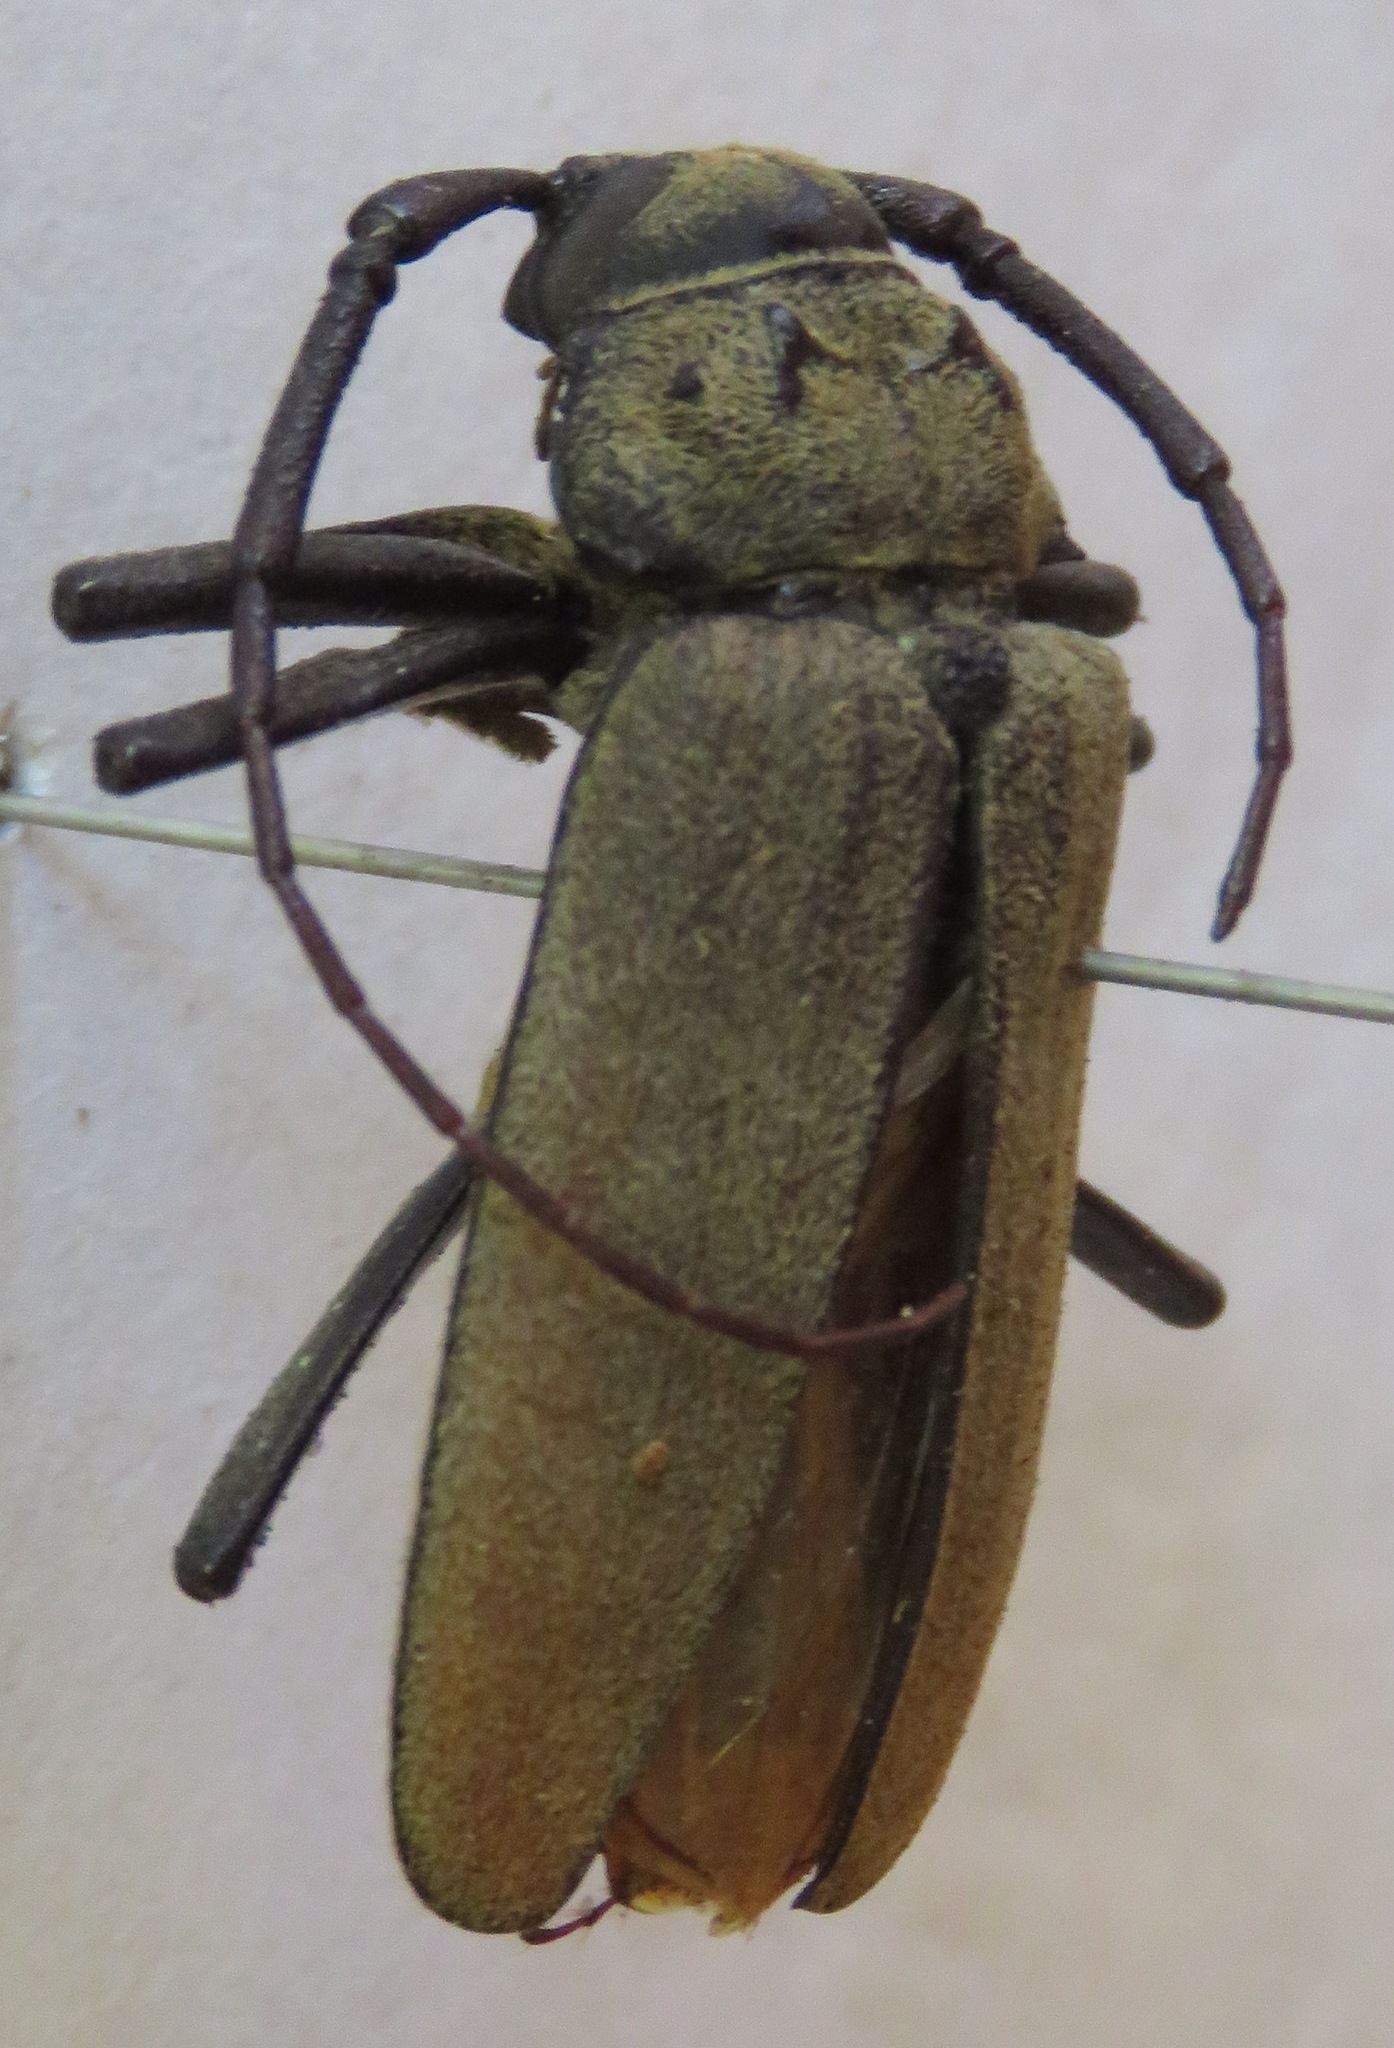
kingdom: Animalia
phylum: Arthropoda
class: Insecta
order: Coleoptera
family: Cerambycidae
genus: Strongylaspis
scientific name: Strongylaspis bullata
